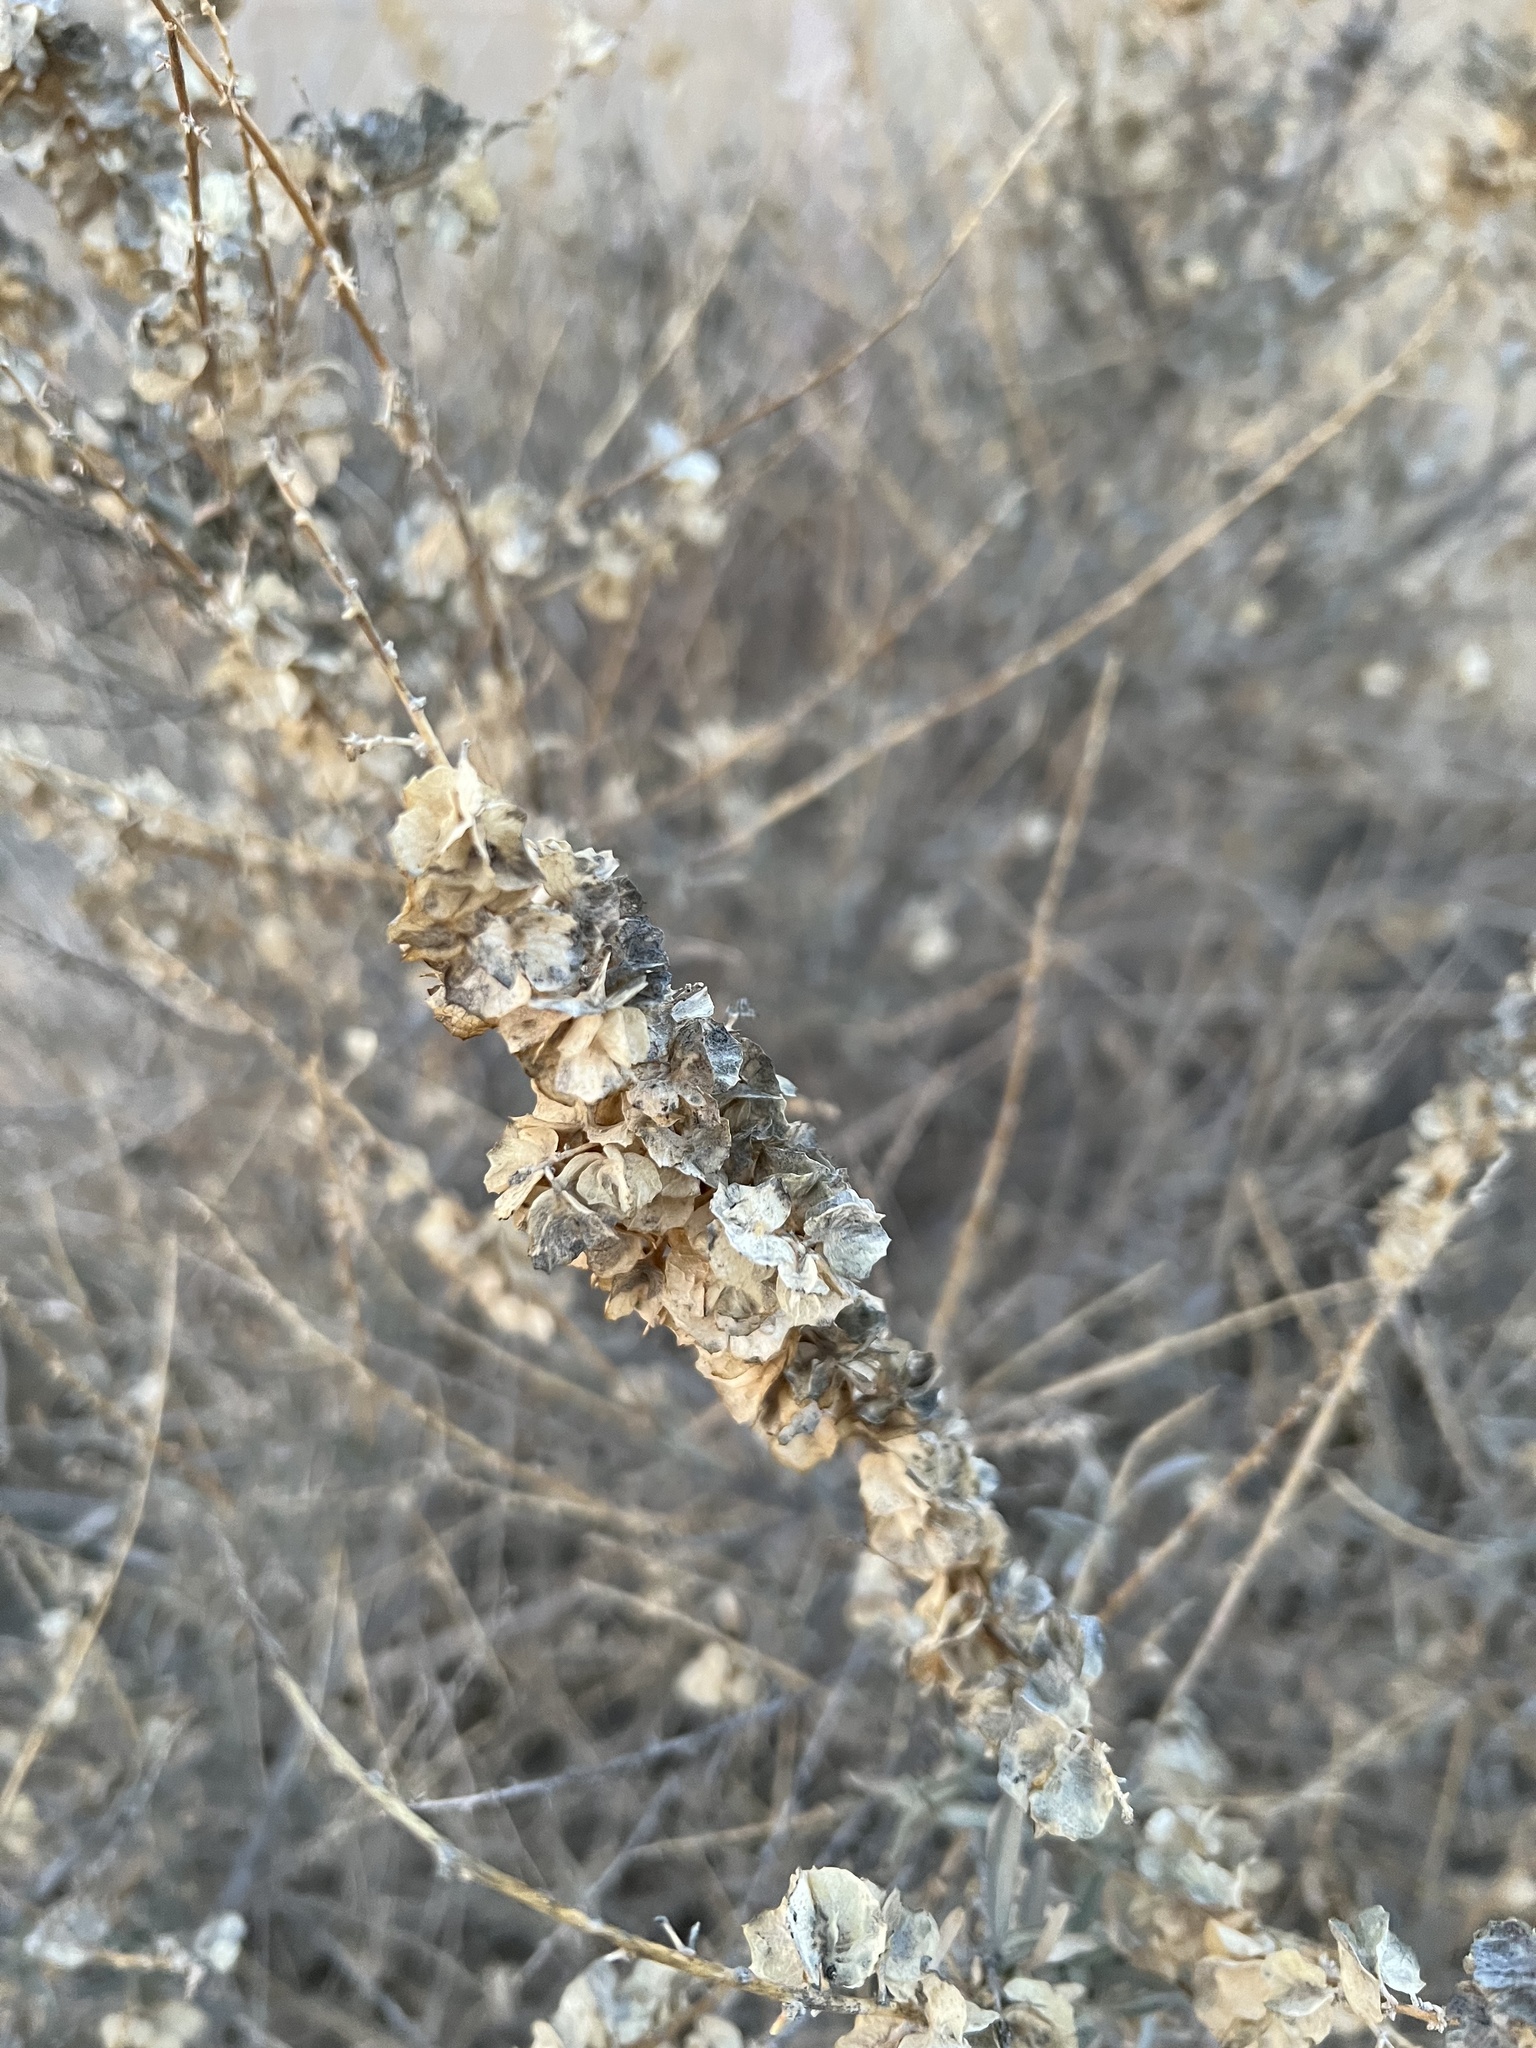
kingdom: Plantae
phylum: Tracheophyta
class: Magnoliopsida
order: Caryophyllales
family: Amaranthaceae
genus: Atriplex
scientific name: Atriplex canescens
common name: Four-wing saltbush
